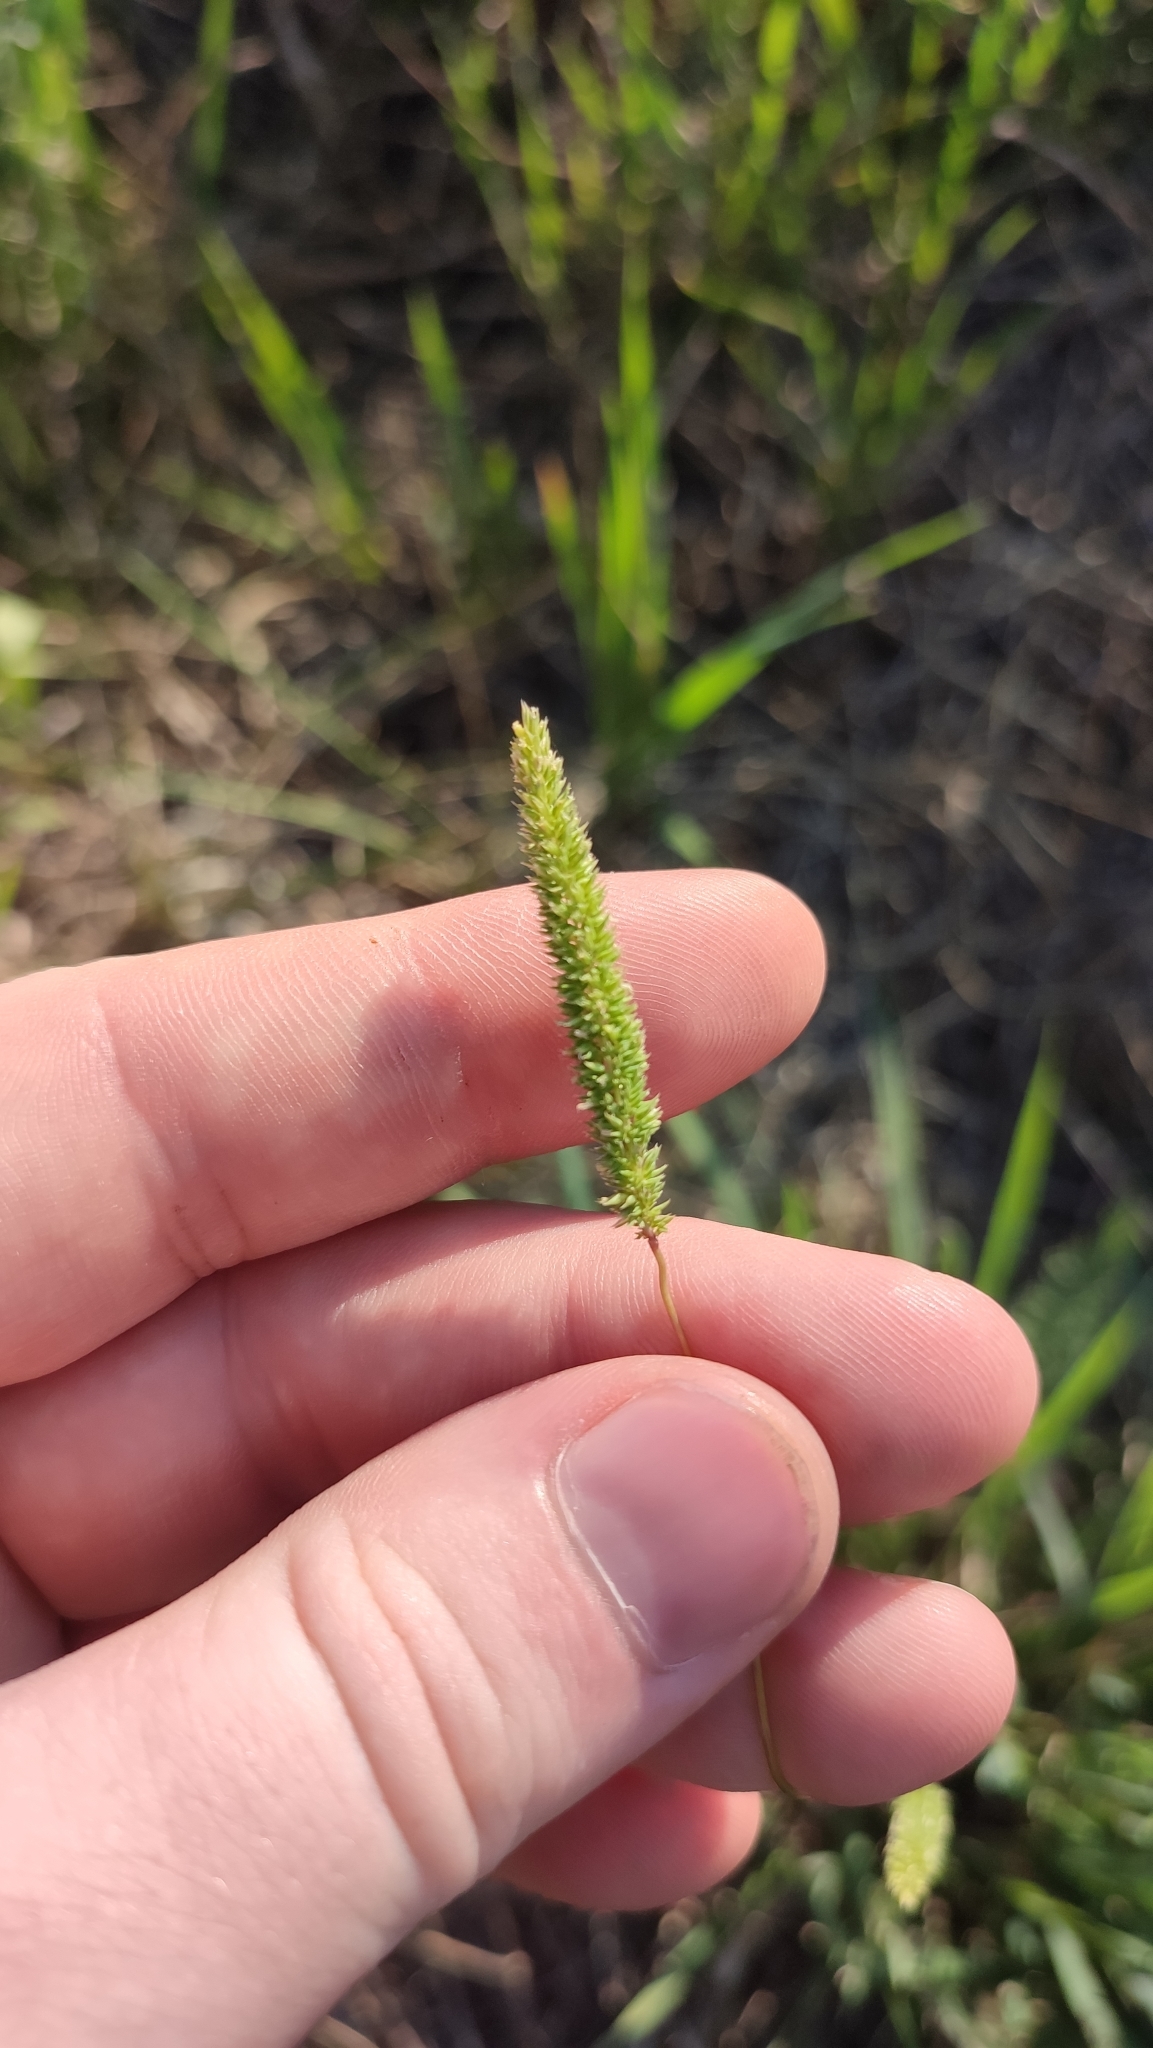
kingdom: Plantae
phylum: Tracheophyta
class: Liliopsida
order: Poales
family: Poaceae
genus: Phleum
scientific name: Phleum phleoides
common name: Purple-stem cat's-tail
